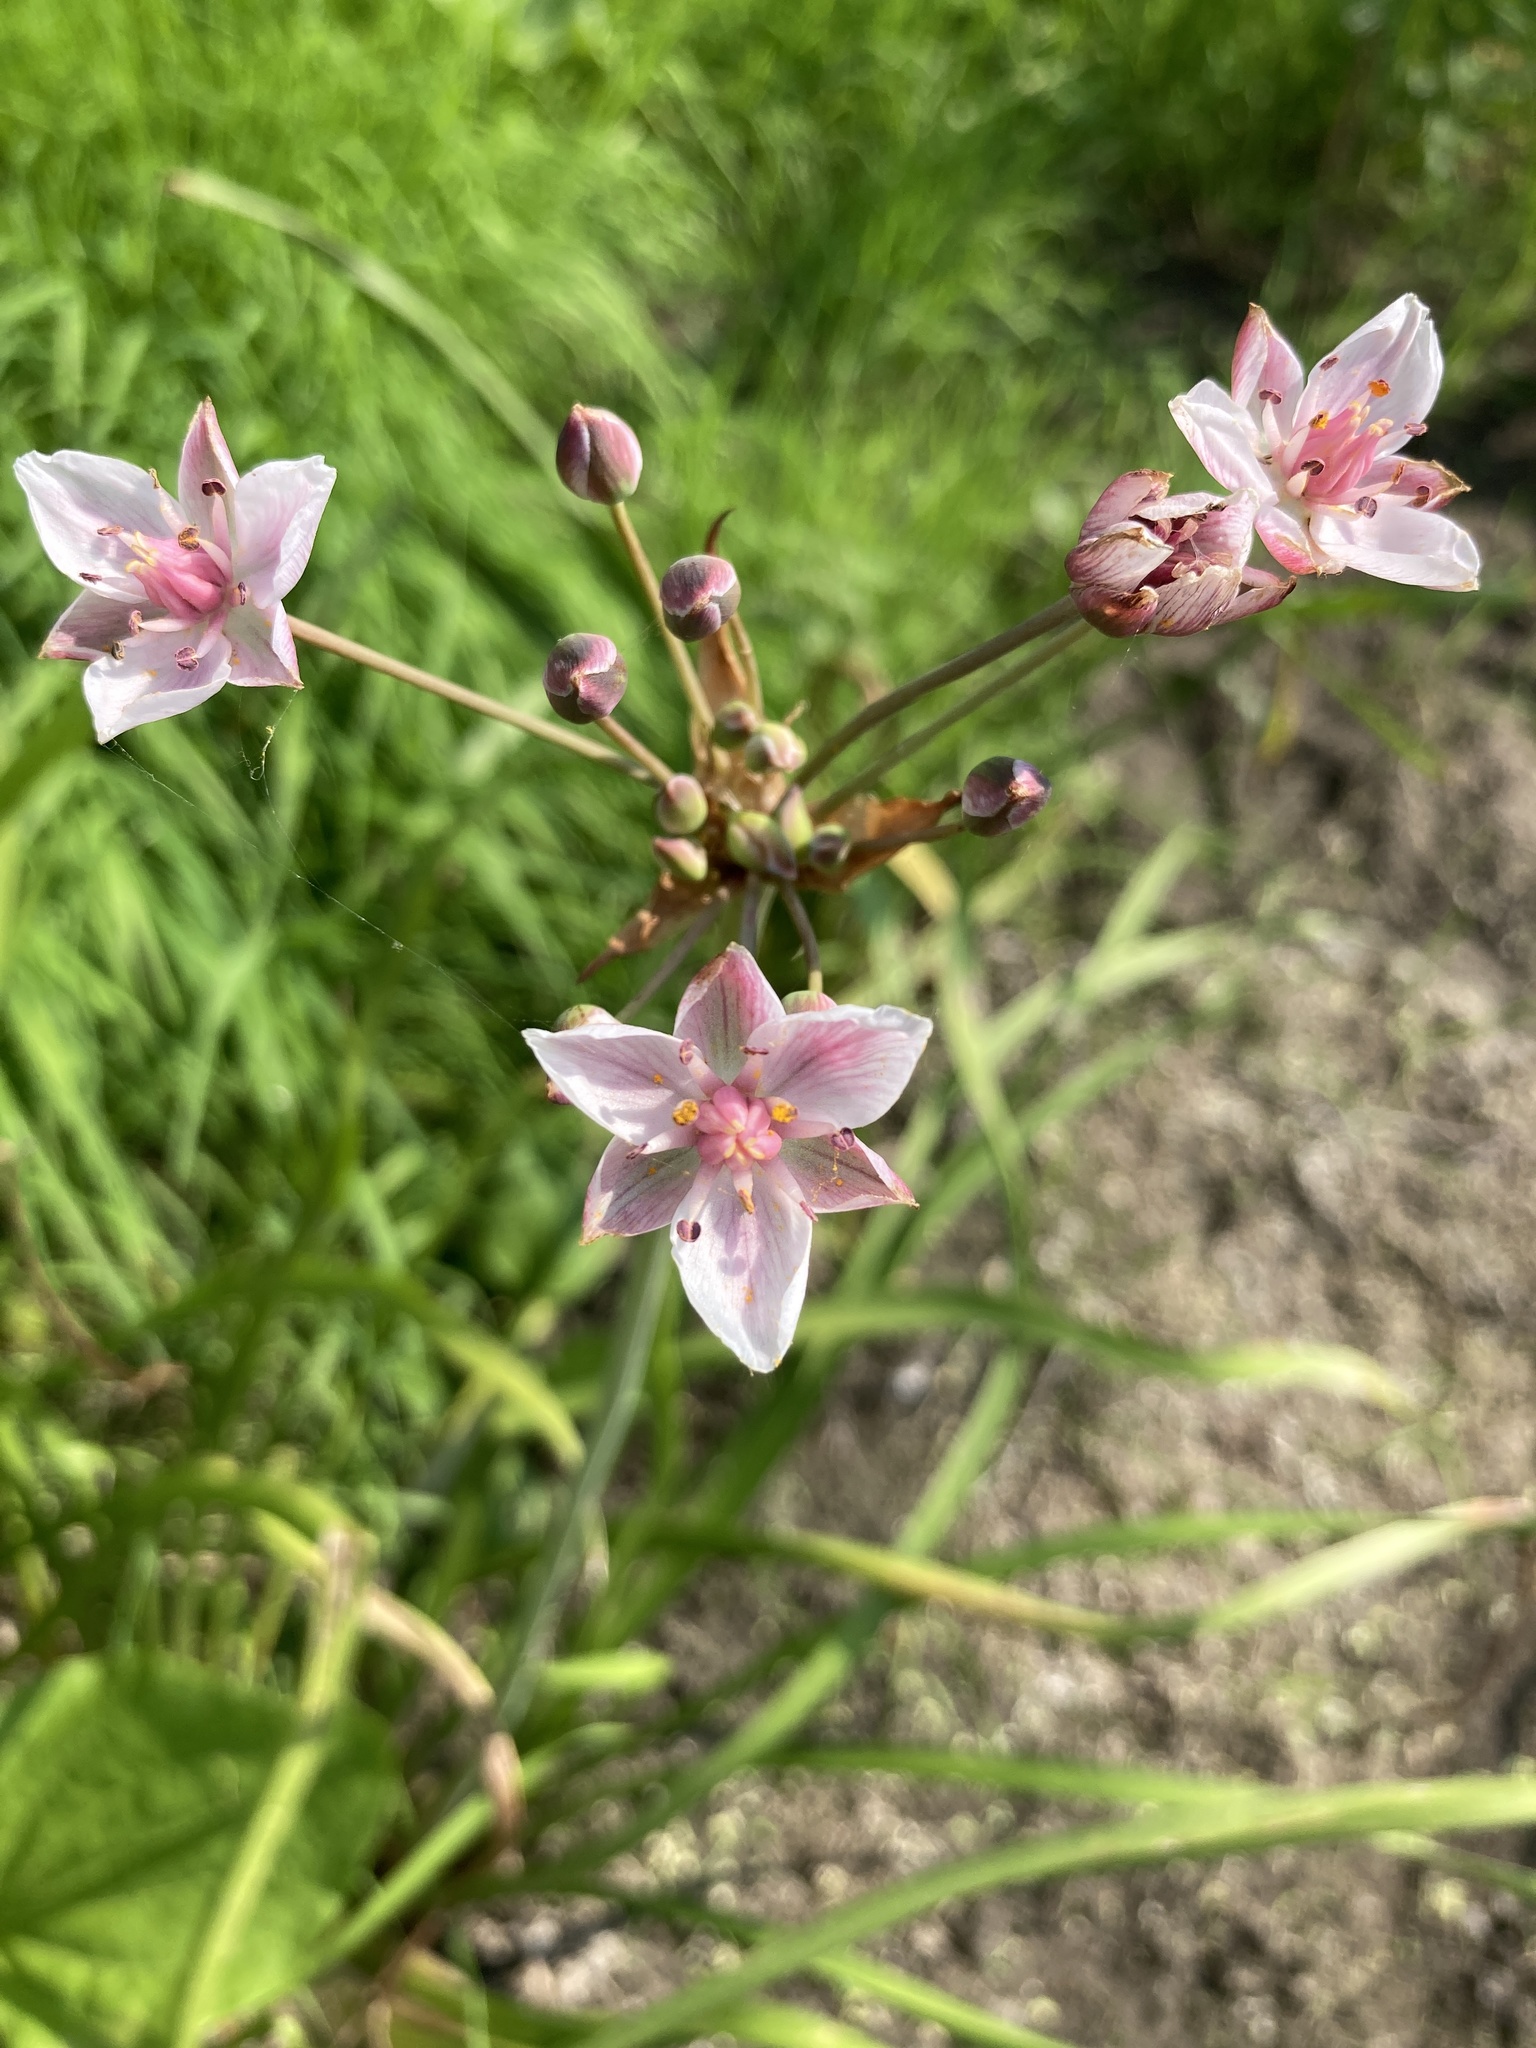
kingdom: Plantae
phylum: Tracheophyta
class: Liliopsida
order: Alismatales
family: Butomaceae
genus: Butomus
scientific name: Butomus umbellatus
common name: Flowering-rush
